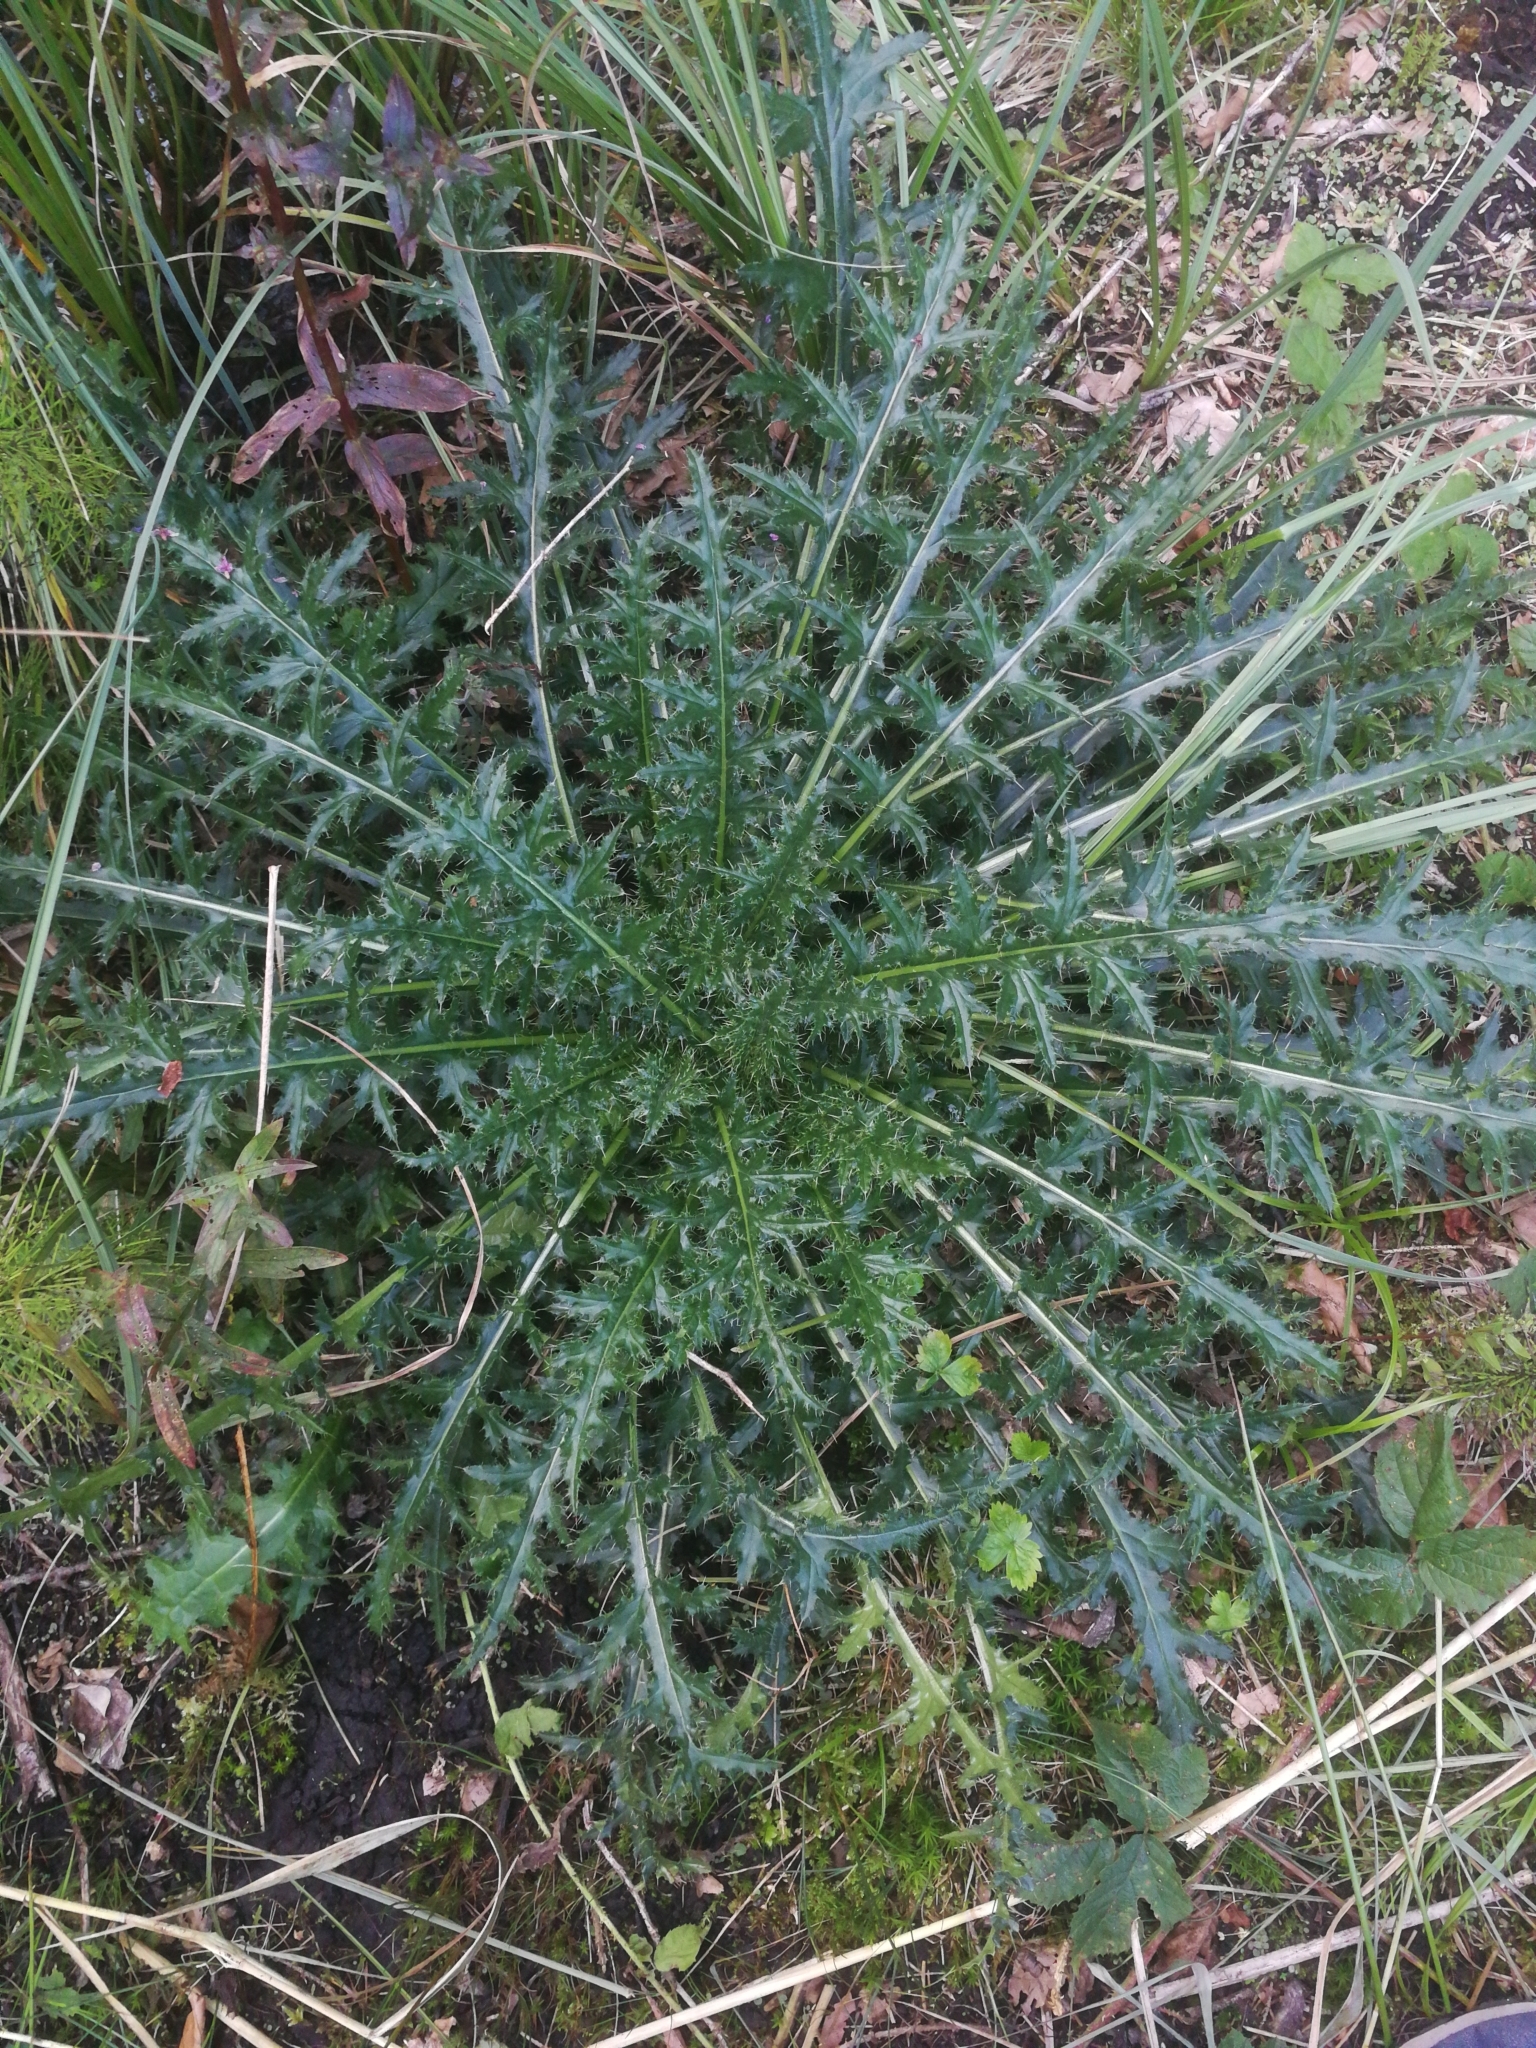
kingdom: Plantae
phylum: Tracheophyta
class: Magnoliopsida
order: Asterales
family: Asteraceae
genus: Cirsium
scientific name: Cirsium palustre
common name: Marsh thistle
